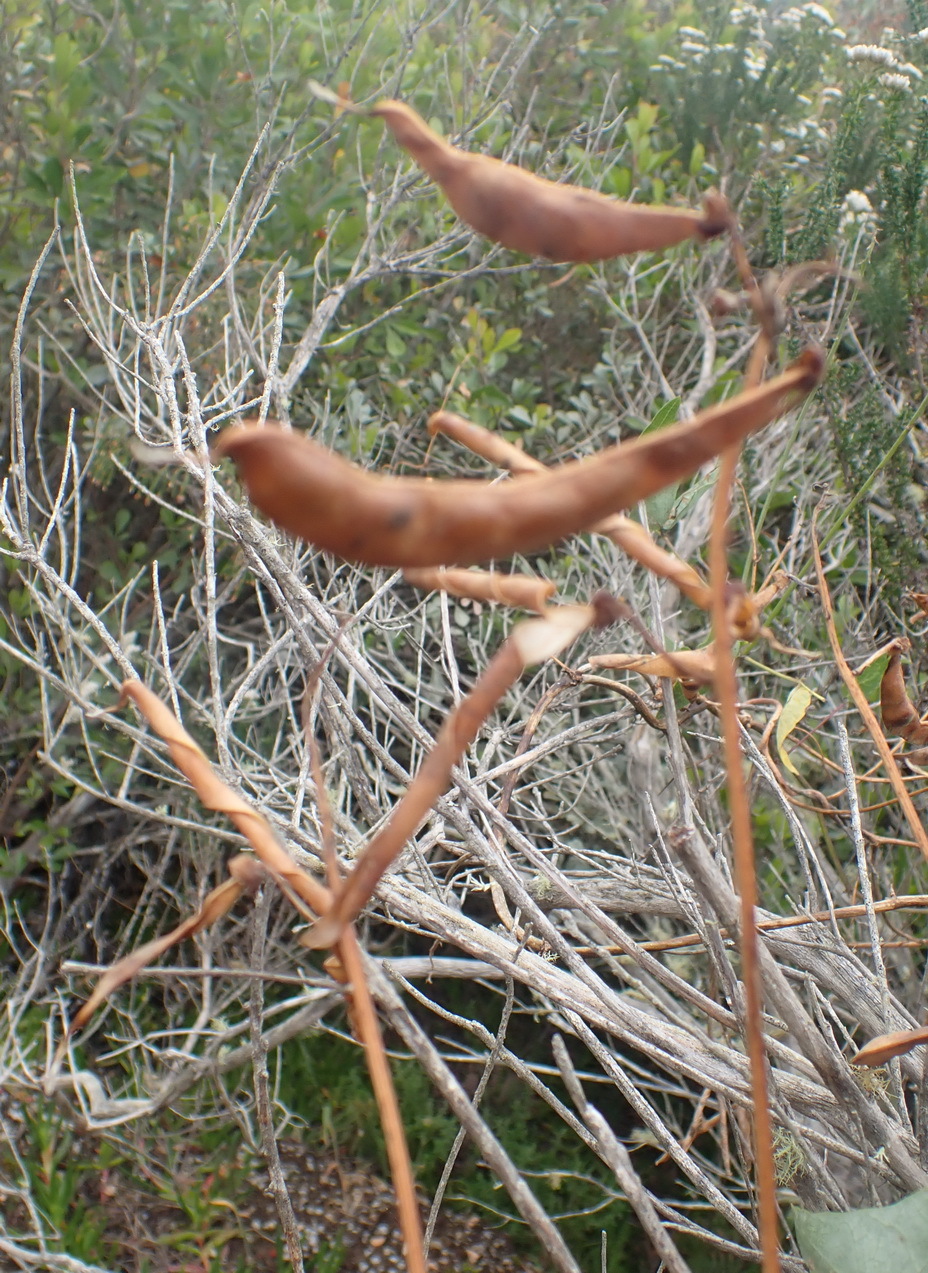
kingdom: Plantae
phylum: Tracheophyta
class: Magnoliopsida
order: Fabales
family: Fabaceae
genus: Dipogon
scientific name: Dipogon lignosus
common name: Okie bean
